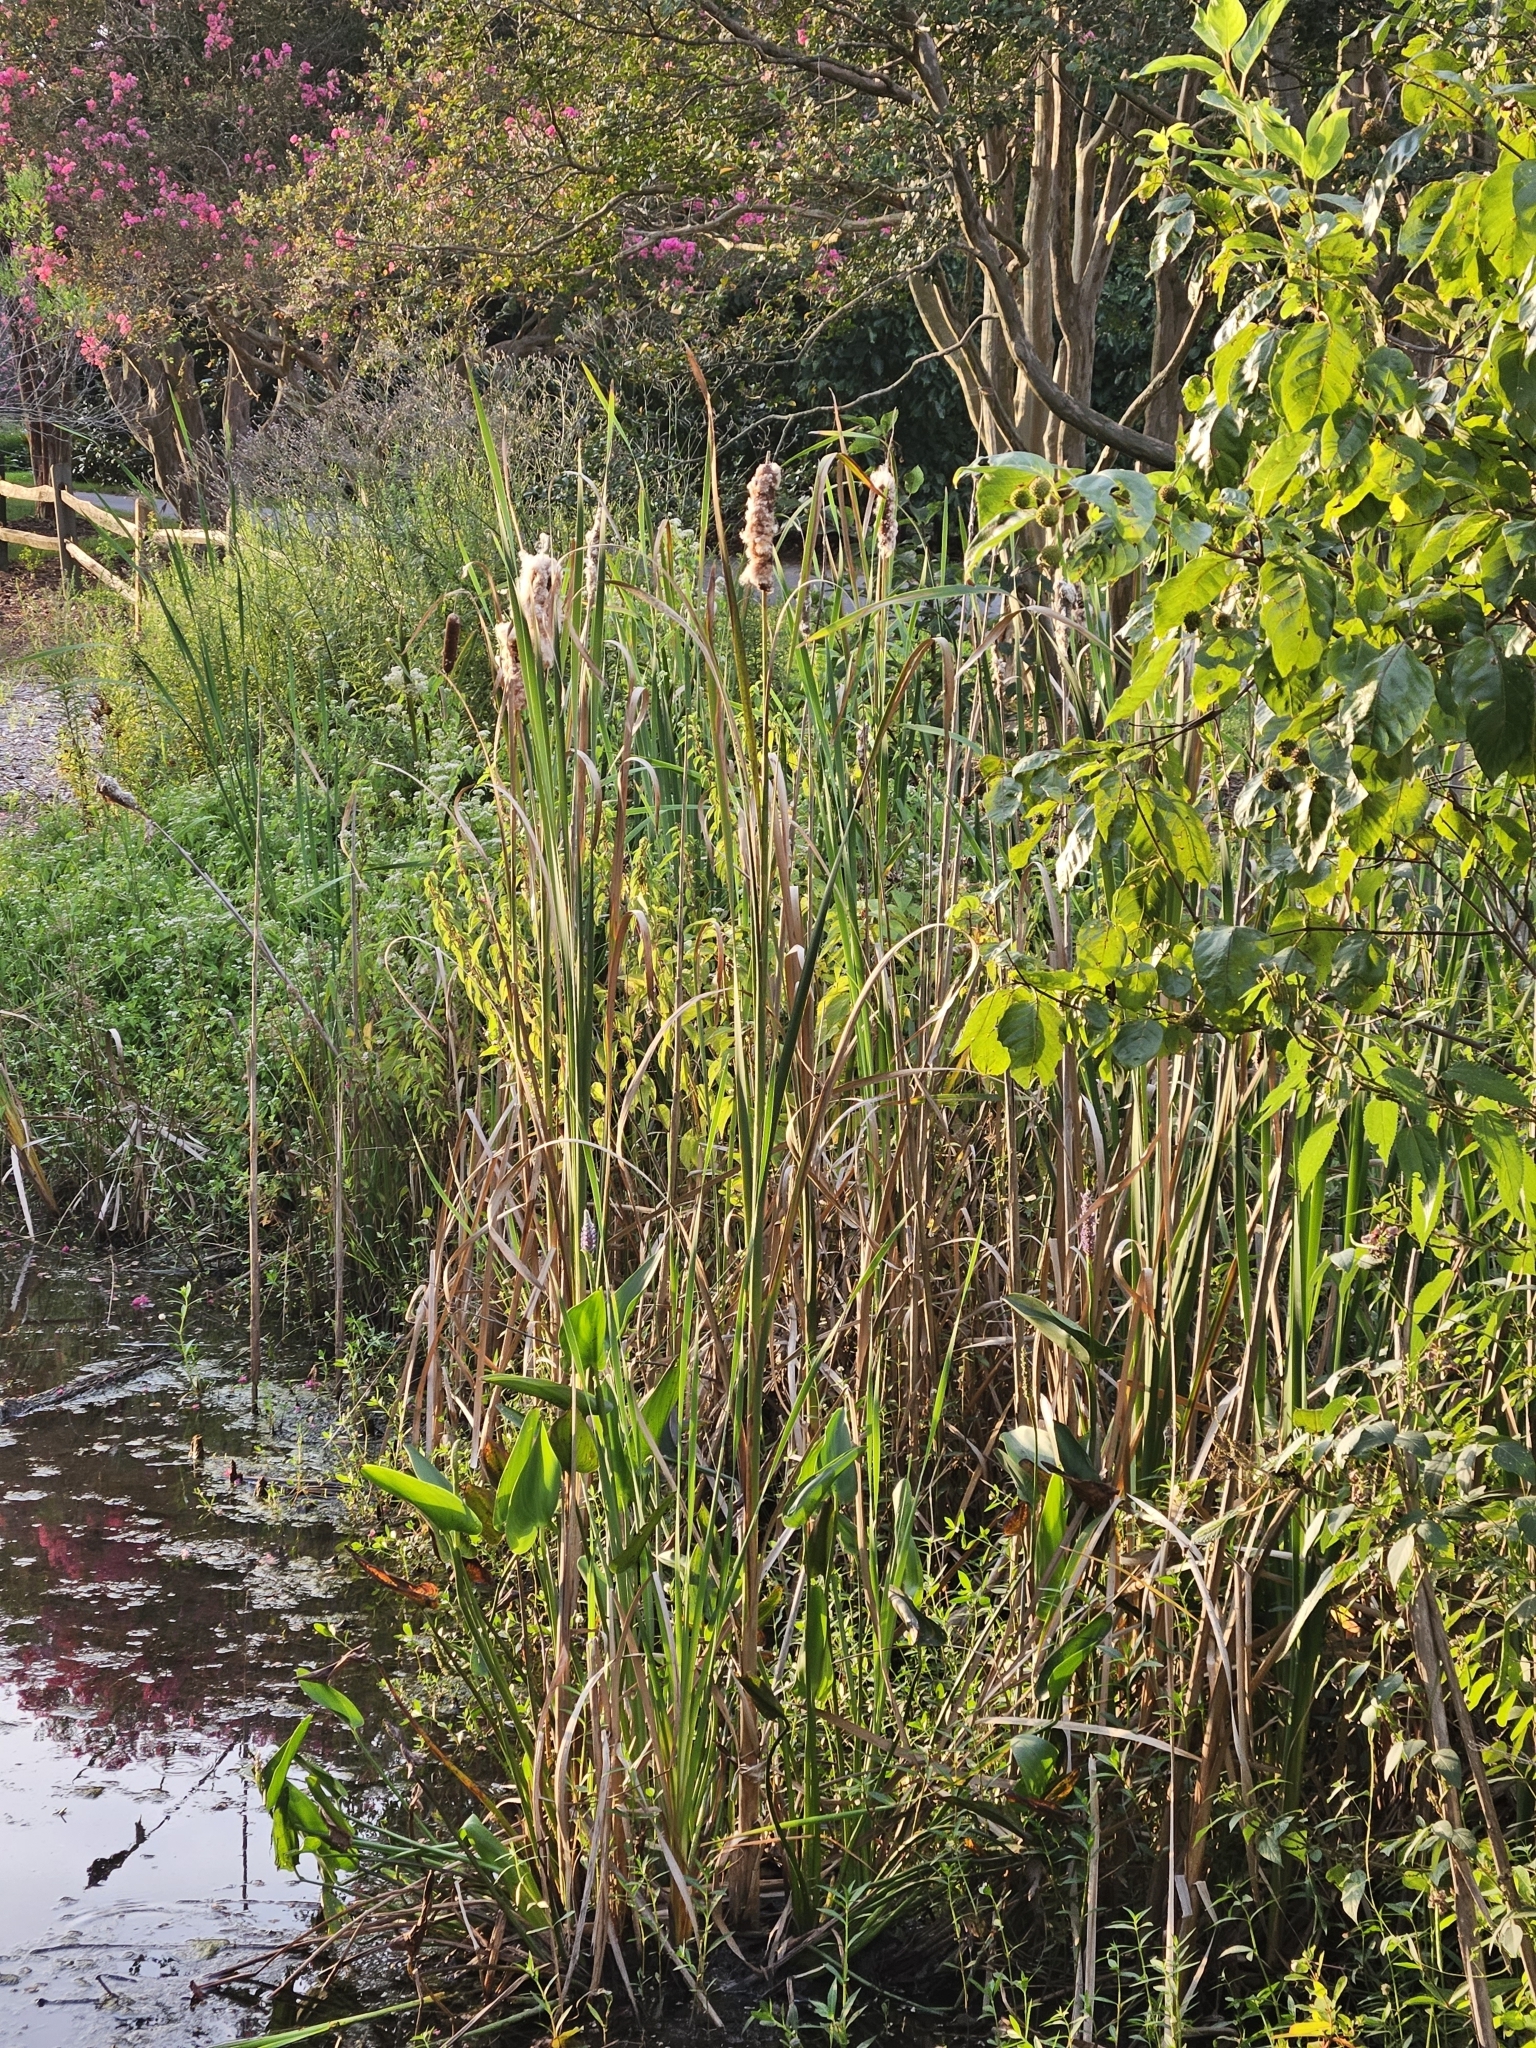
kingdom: Plantae
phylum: Tracheophyta
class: Liliopsida
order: Poales
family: Typhaceae
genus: Typha
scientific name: Typha angustifolia
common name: Lesser bulrush
